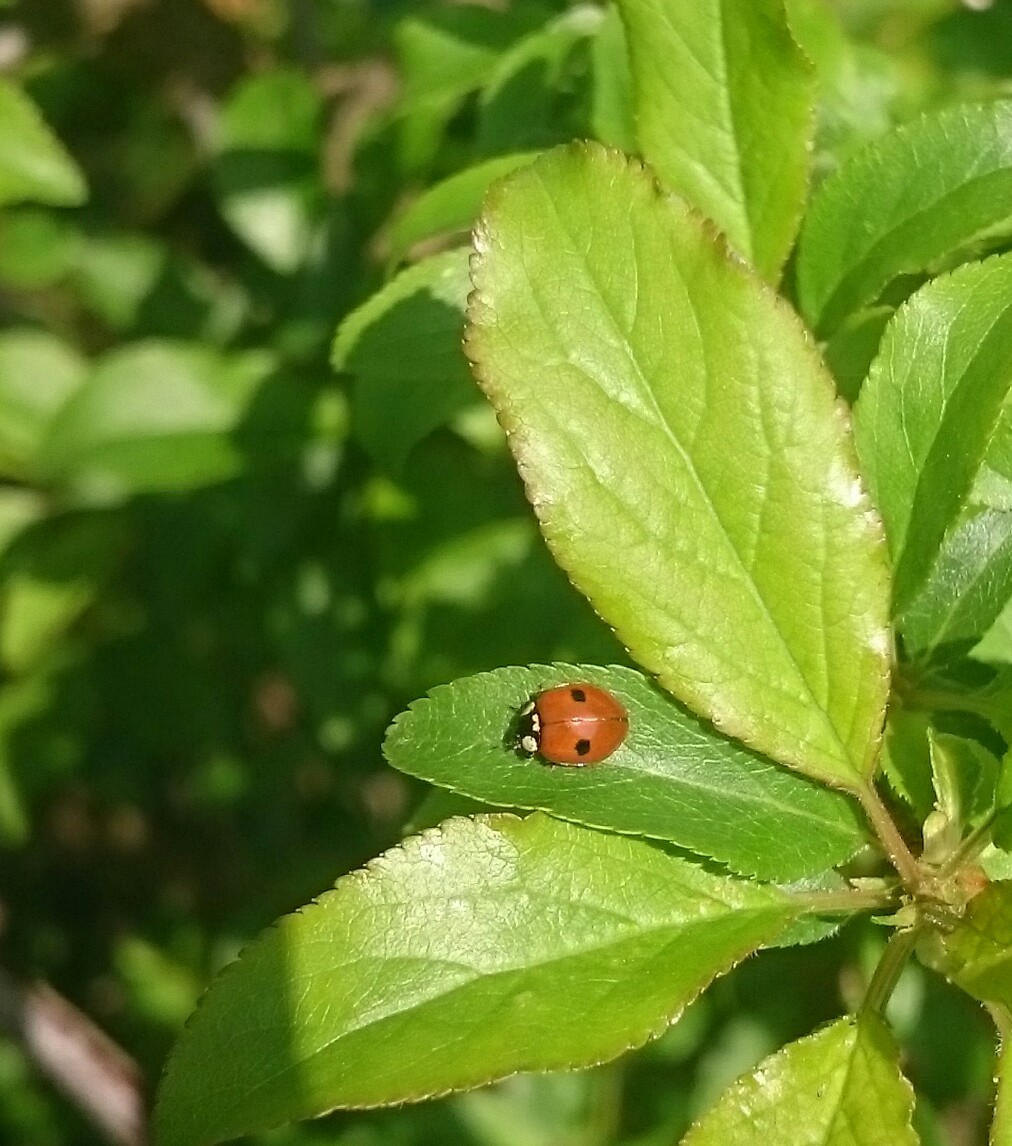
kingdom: Animalia
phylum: Arthropoda
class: Insecta
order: Coleoptera
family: Coccinellidae
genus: Adalia
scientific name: Adalia bipunctata
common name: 2-spot ladybird
